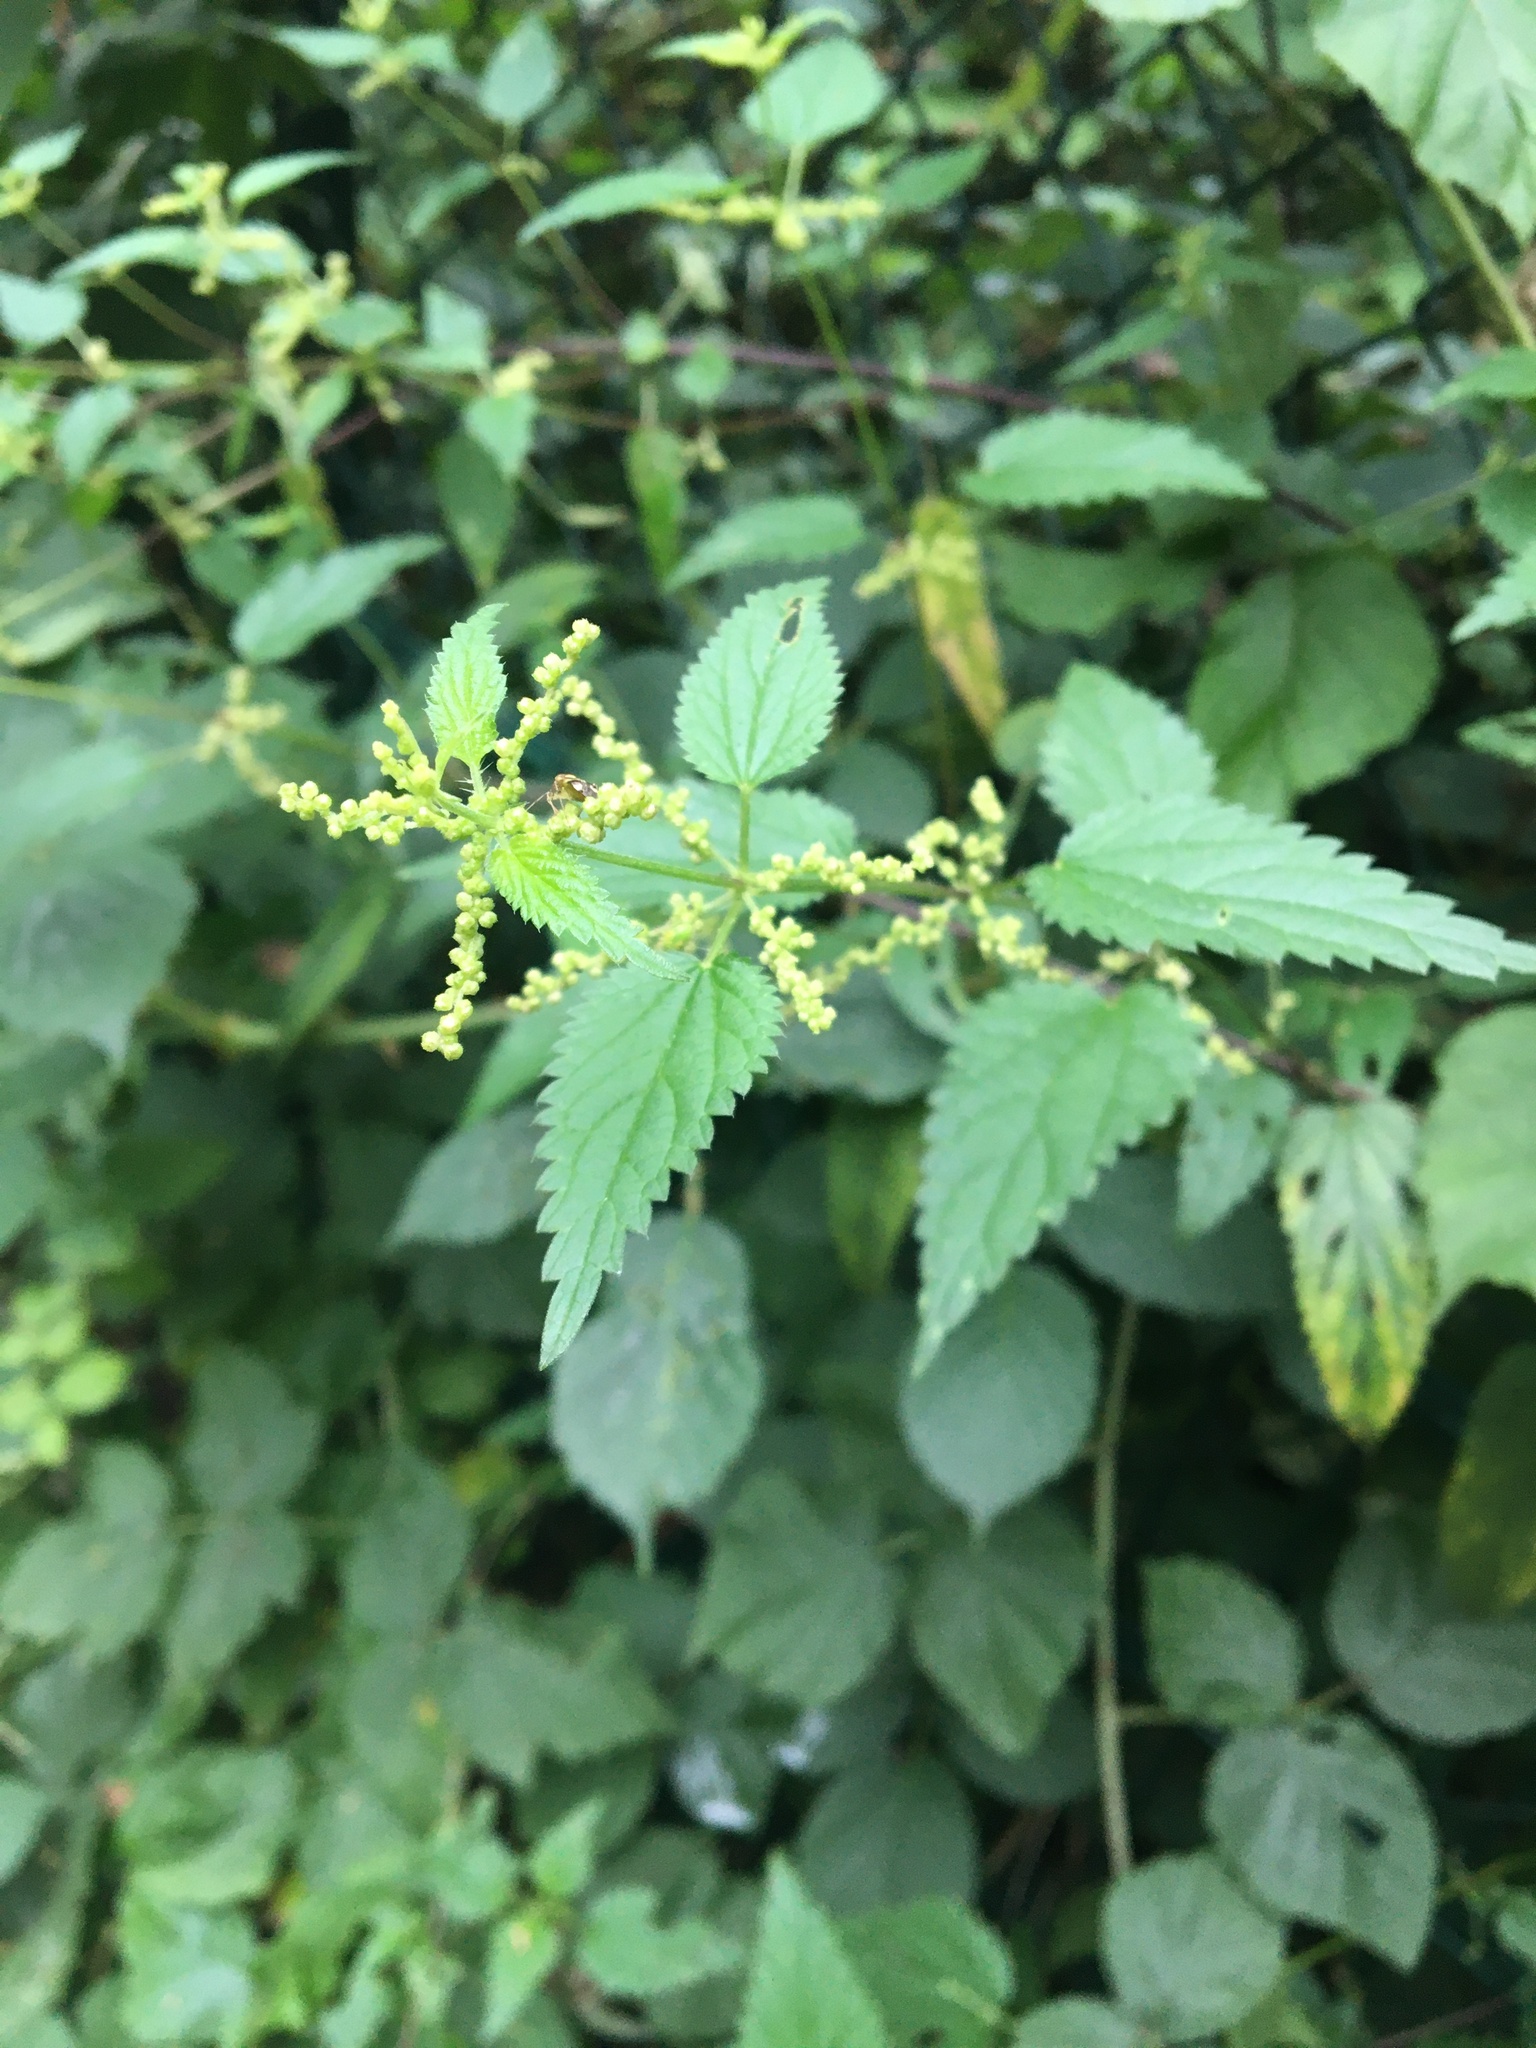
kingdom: Plantae
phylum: Tracheophyta
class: Magnoliopsida
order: Rosales
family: Urticaceae
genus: Urtica
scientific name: Urtica dioica
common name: Common nettle
